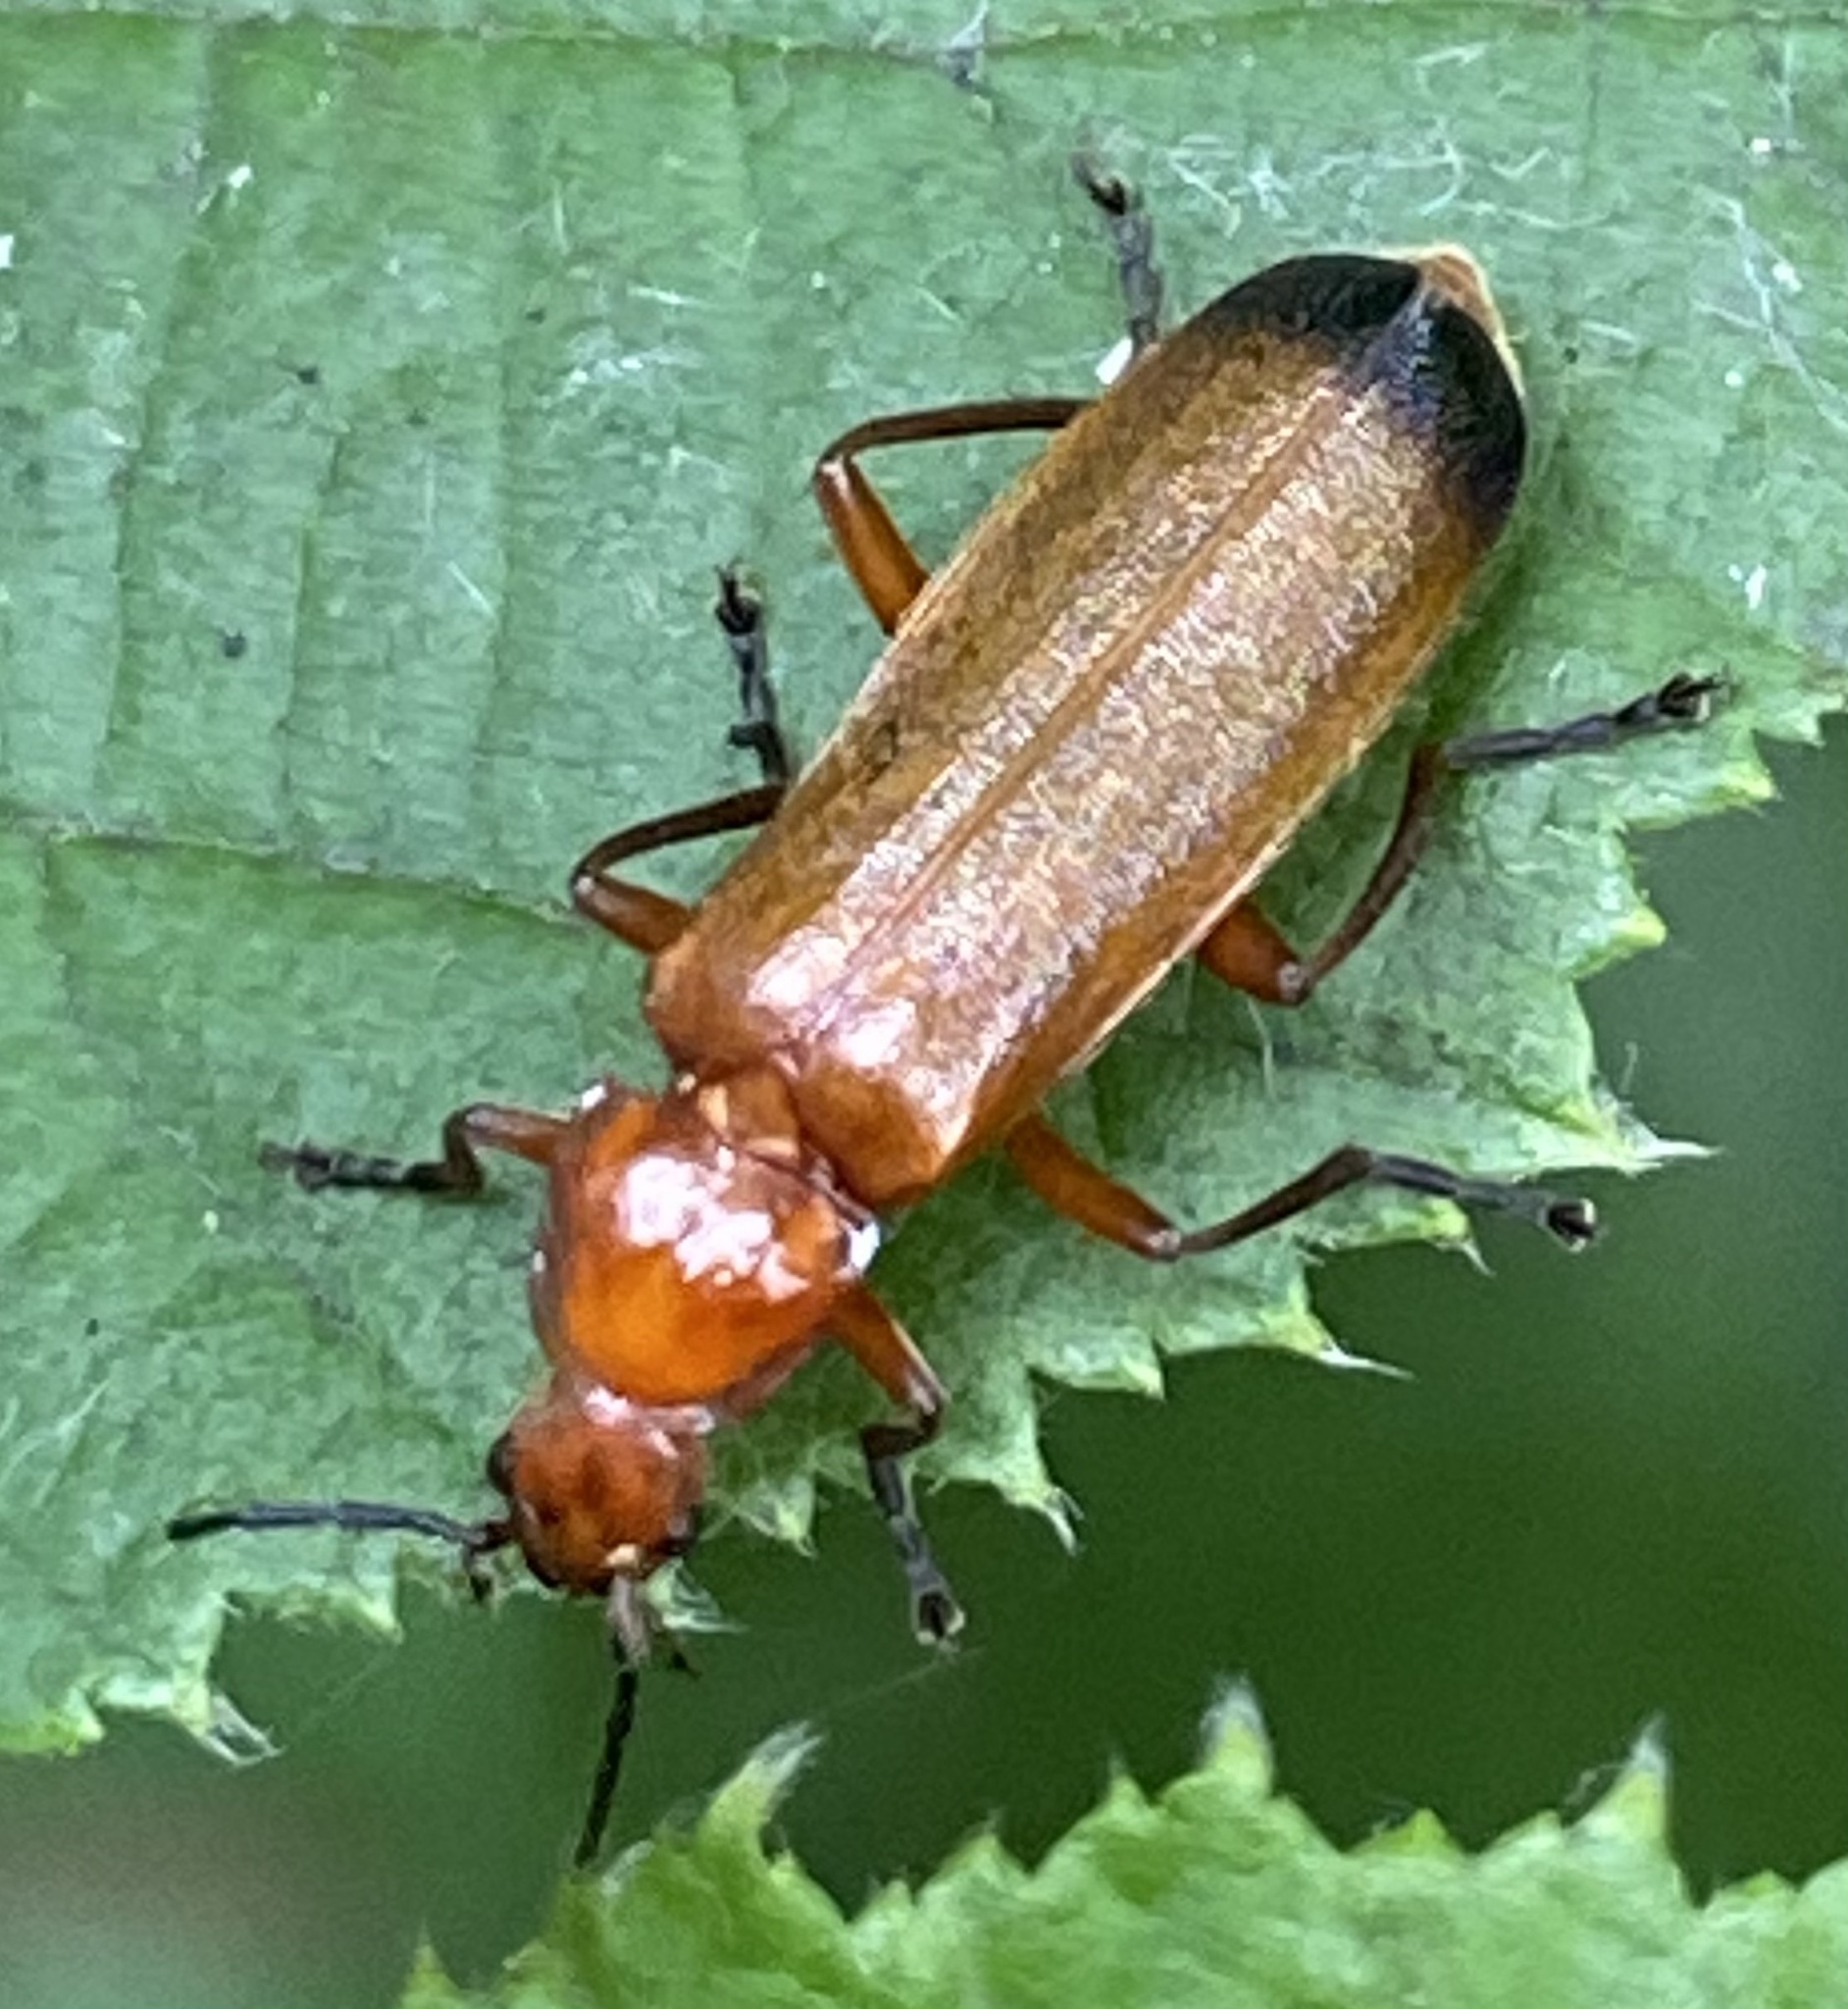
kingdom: Animalia
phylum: Arthropoda
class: Insecta
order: Coleoptera
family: Cantharidae
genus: Rhagonycha
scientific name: Rhagonycha fulva
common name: Common red soldier beetle
